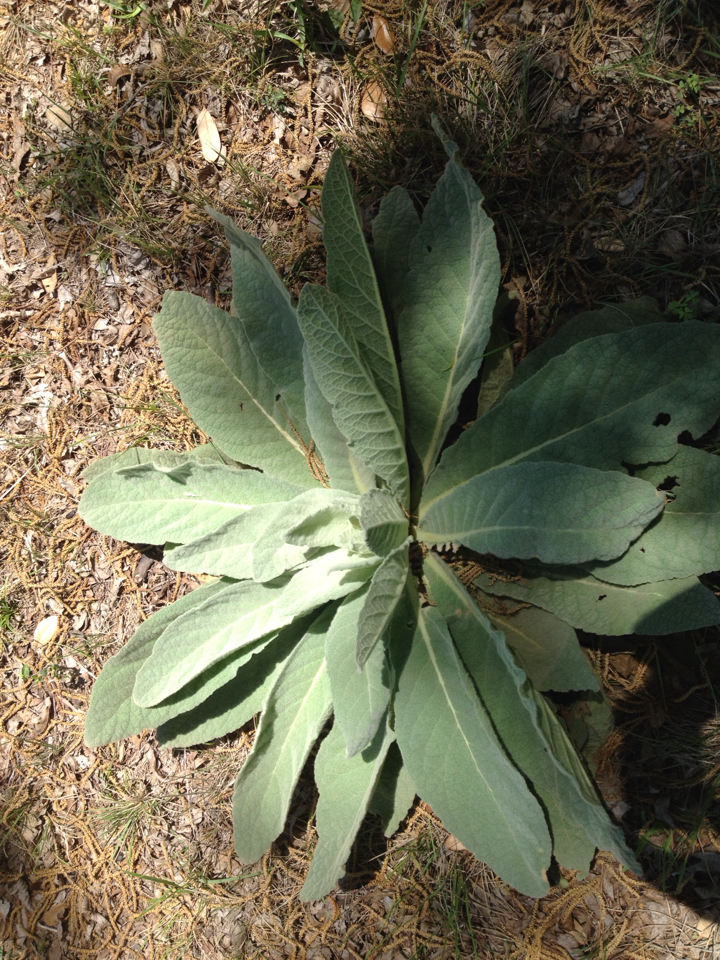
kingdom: Plantae
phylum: Tracheophyta
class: Magnoliopsida
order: Lamiales
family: Scrophulariaceae
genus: Verbascum
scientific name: Verbascum thapsus
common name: Common mullein
